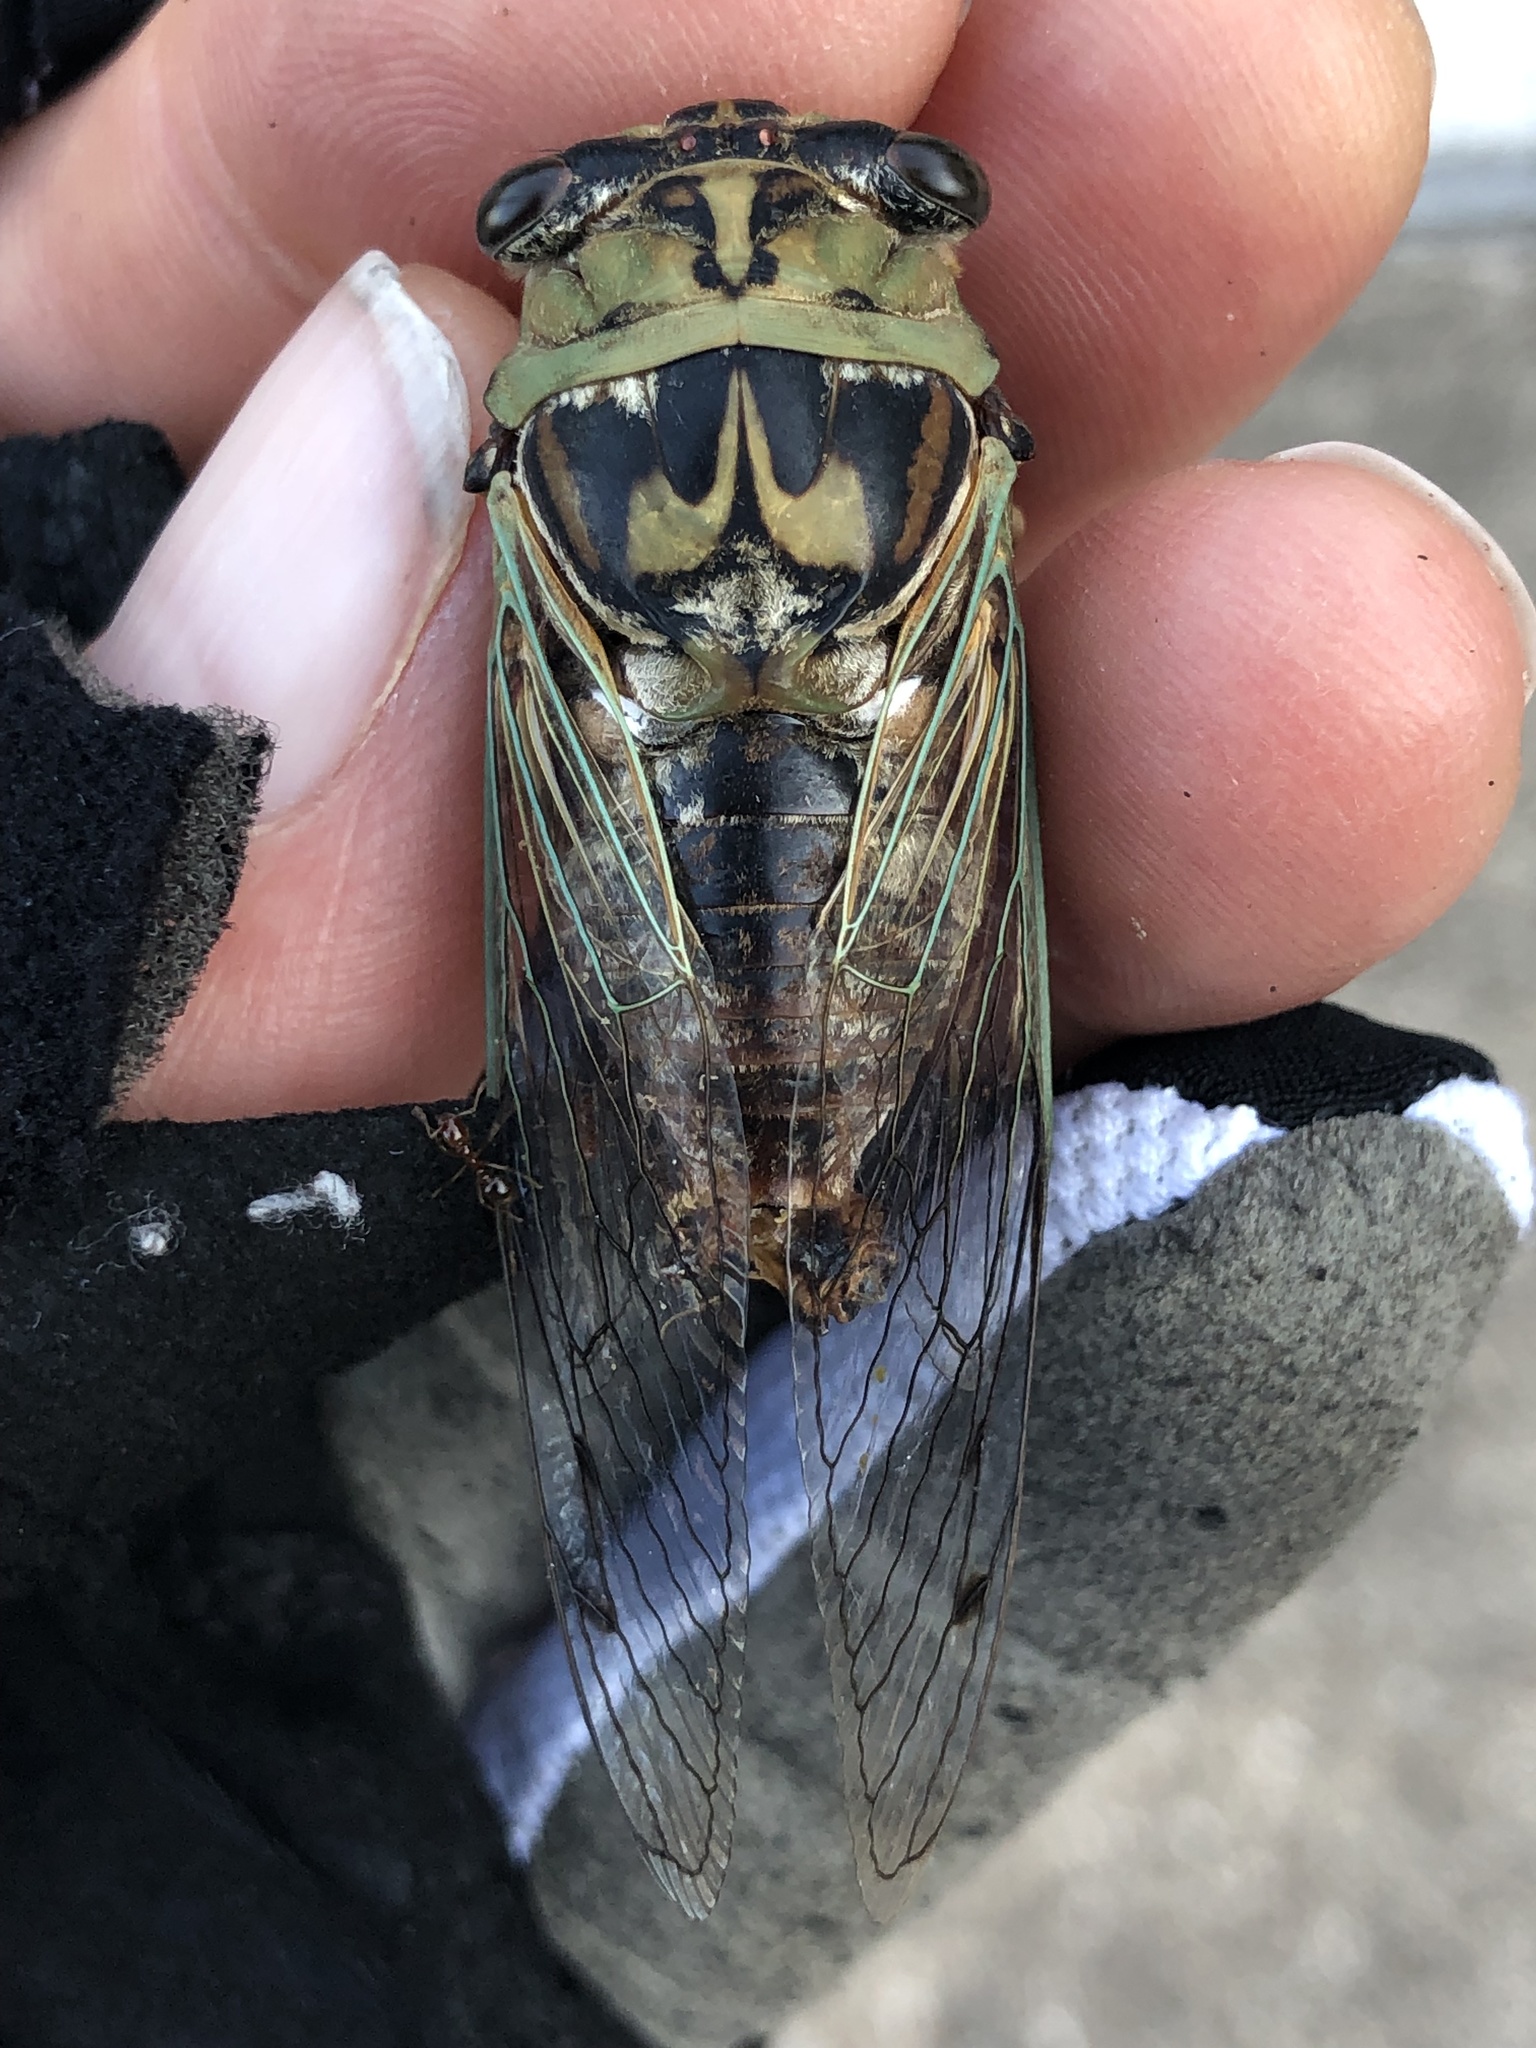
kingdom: Animalia
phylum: Arthropoda
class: Insecta
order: Hemiptera
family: Cicadidae
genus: Megatibicen
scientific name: Megatibicen resh
